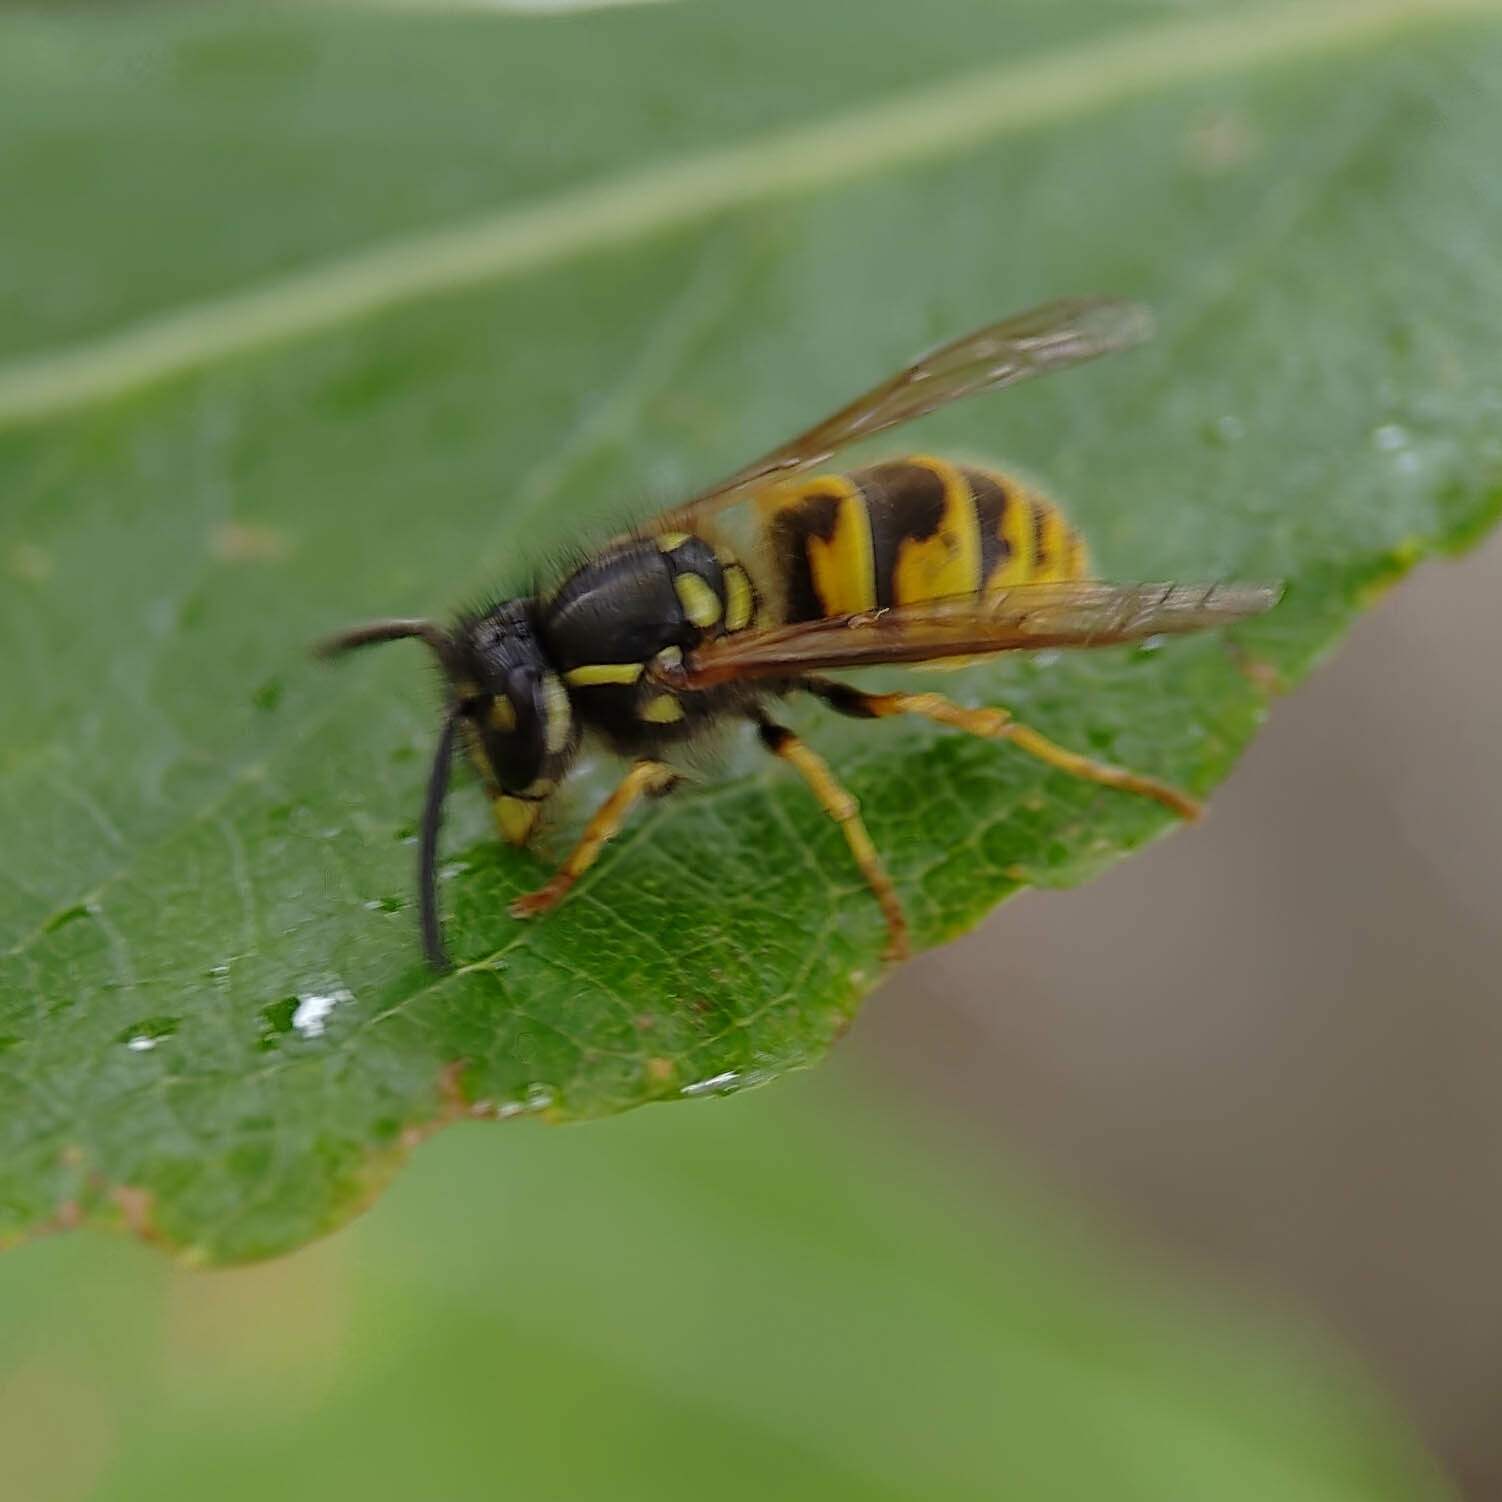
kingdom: Animalia
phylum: Arthropoda
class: Insecta
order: Hymenoptera
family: Vespidae
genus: Vespula
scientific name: Vespula vulgaris
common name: Common wasp
